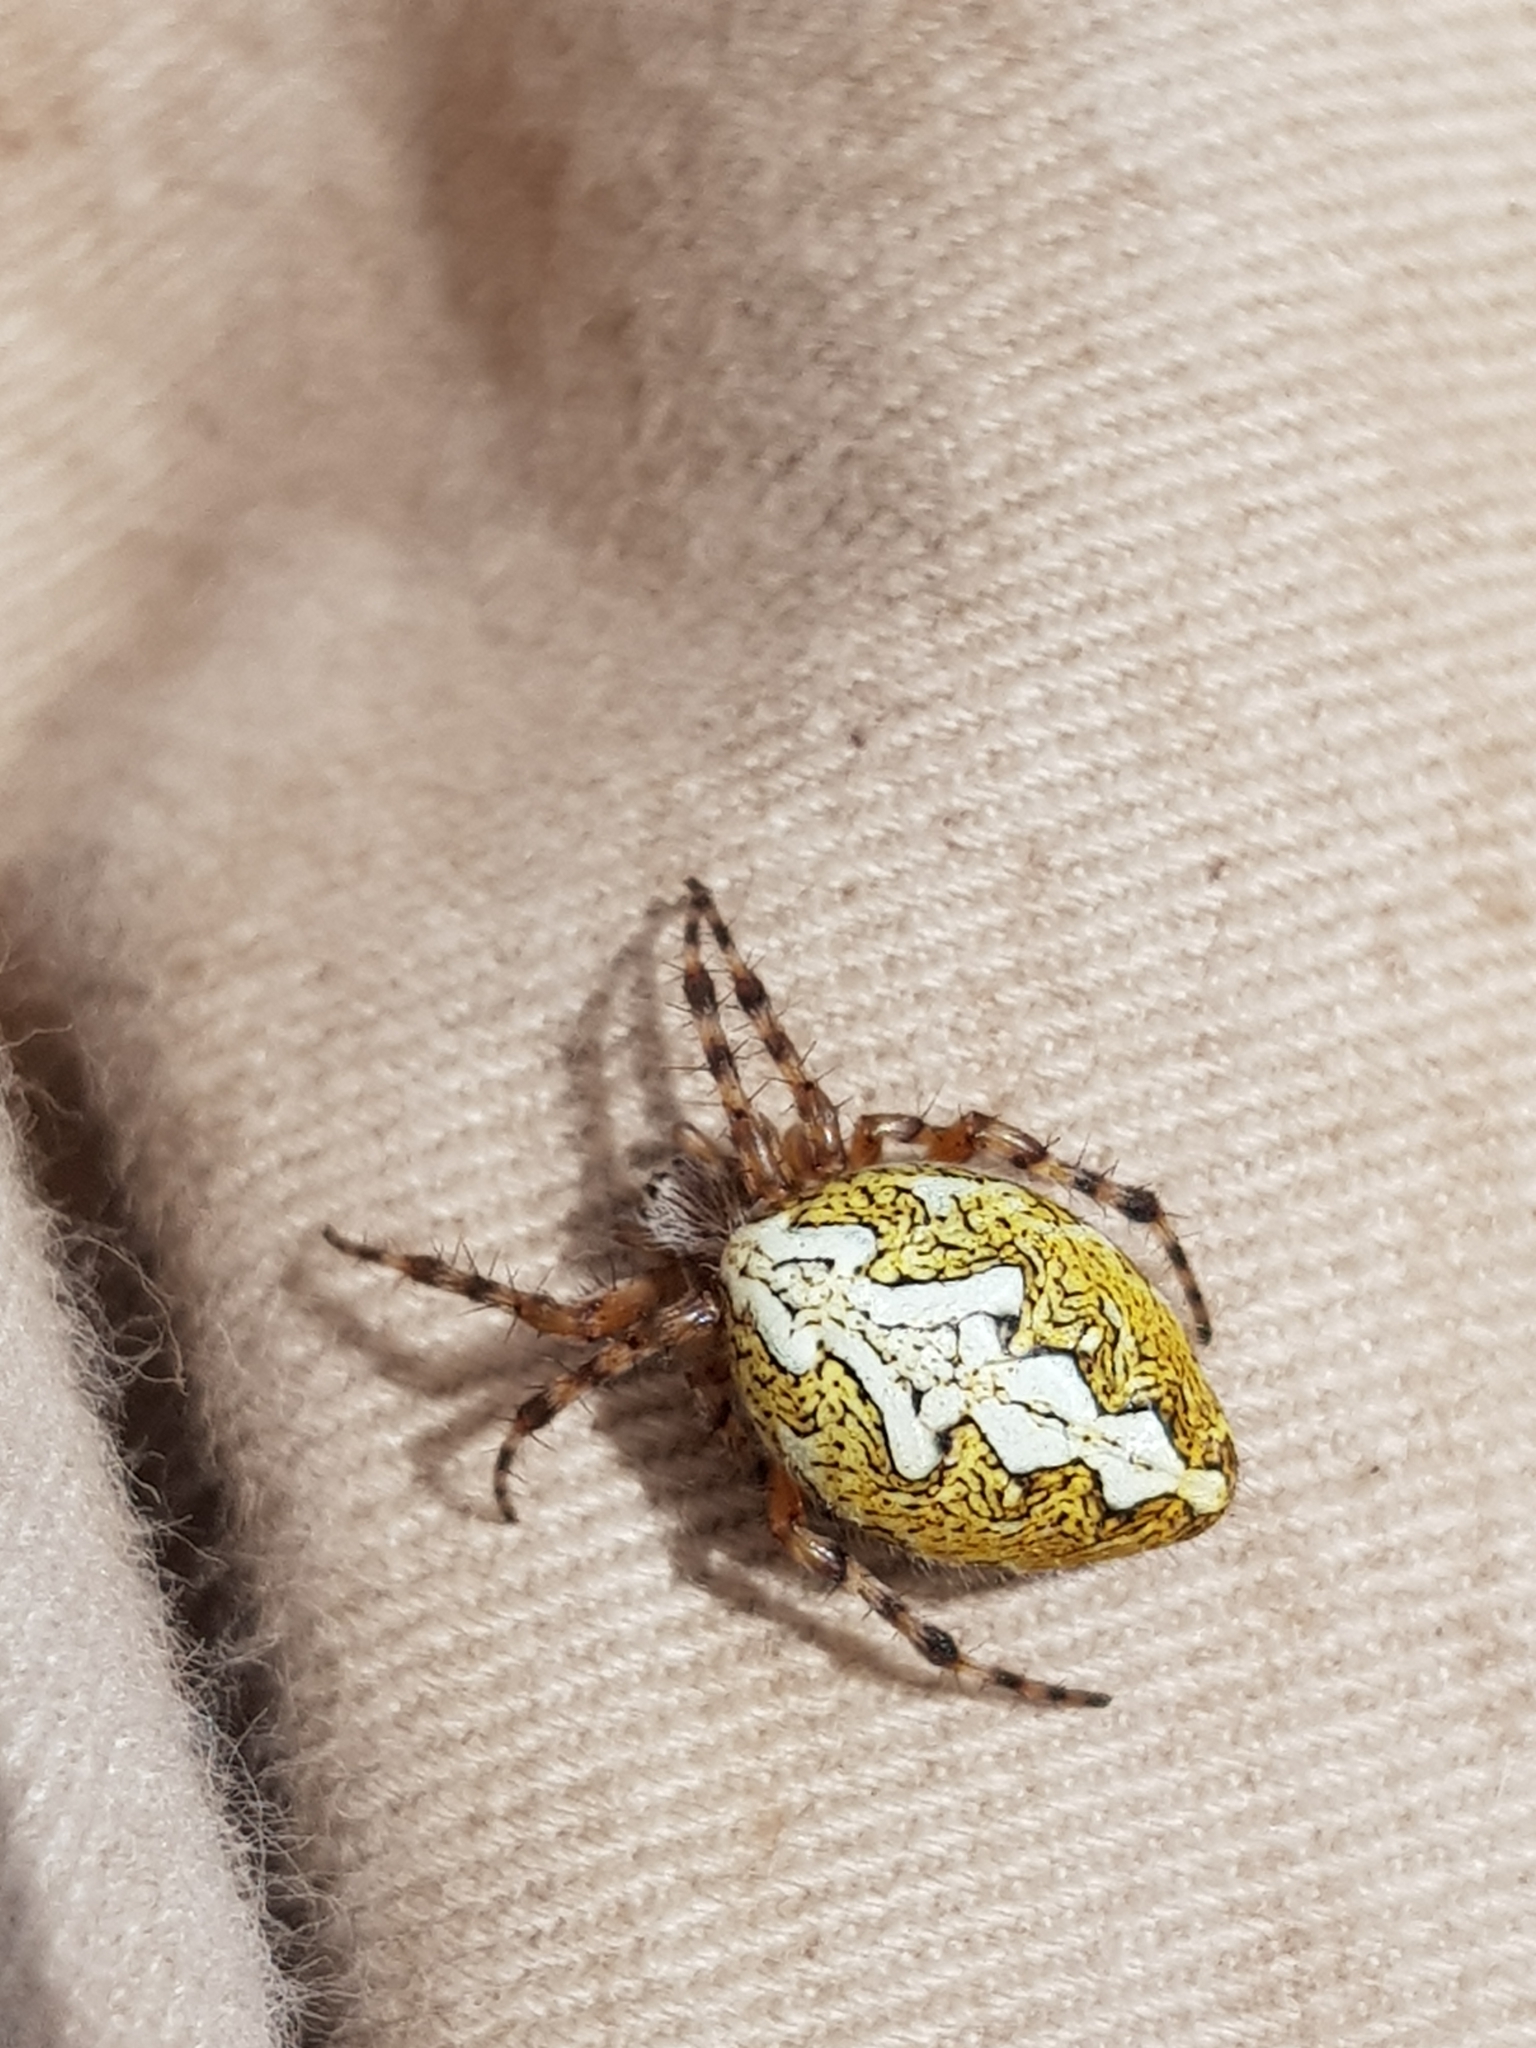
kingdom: Animalia
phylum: Arthropoda
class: Arachnida
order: Araneae
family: Araneidae
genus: Aculepeira
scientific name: Aculepeira ceropegia
